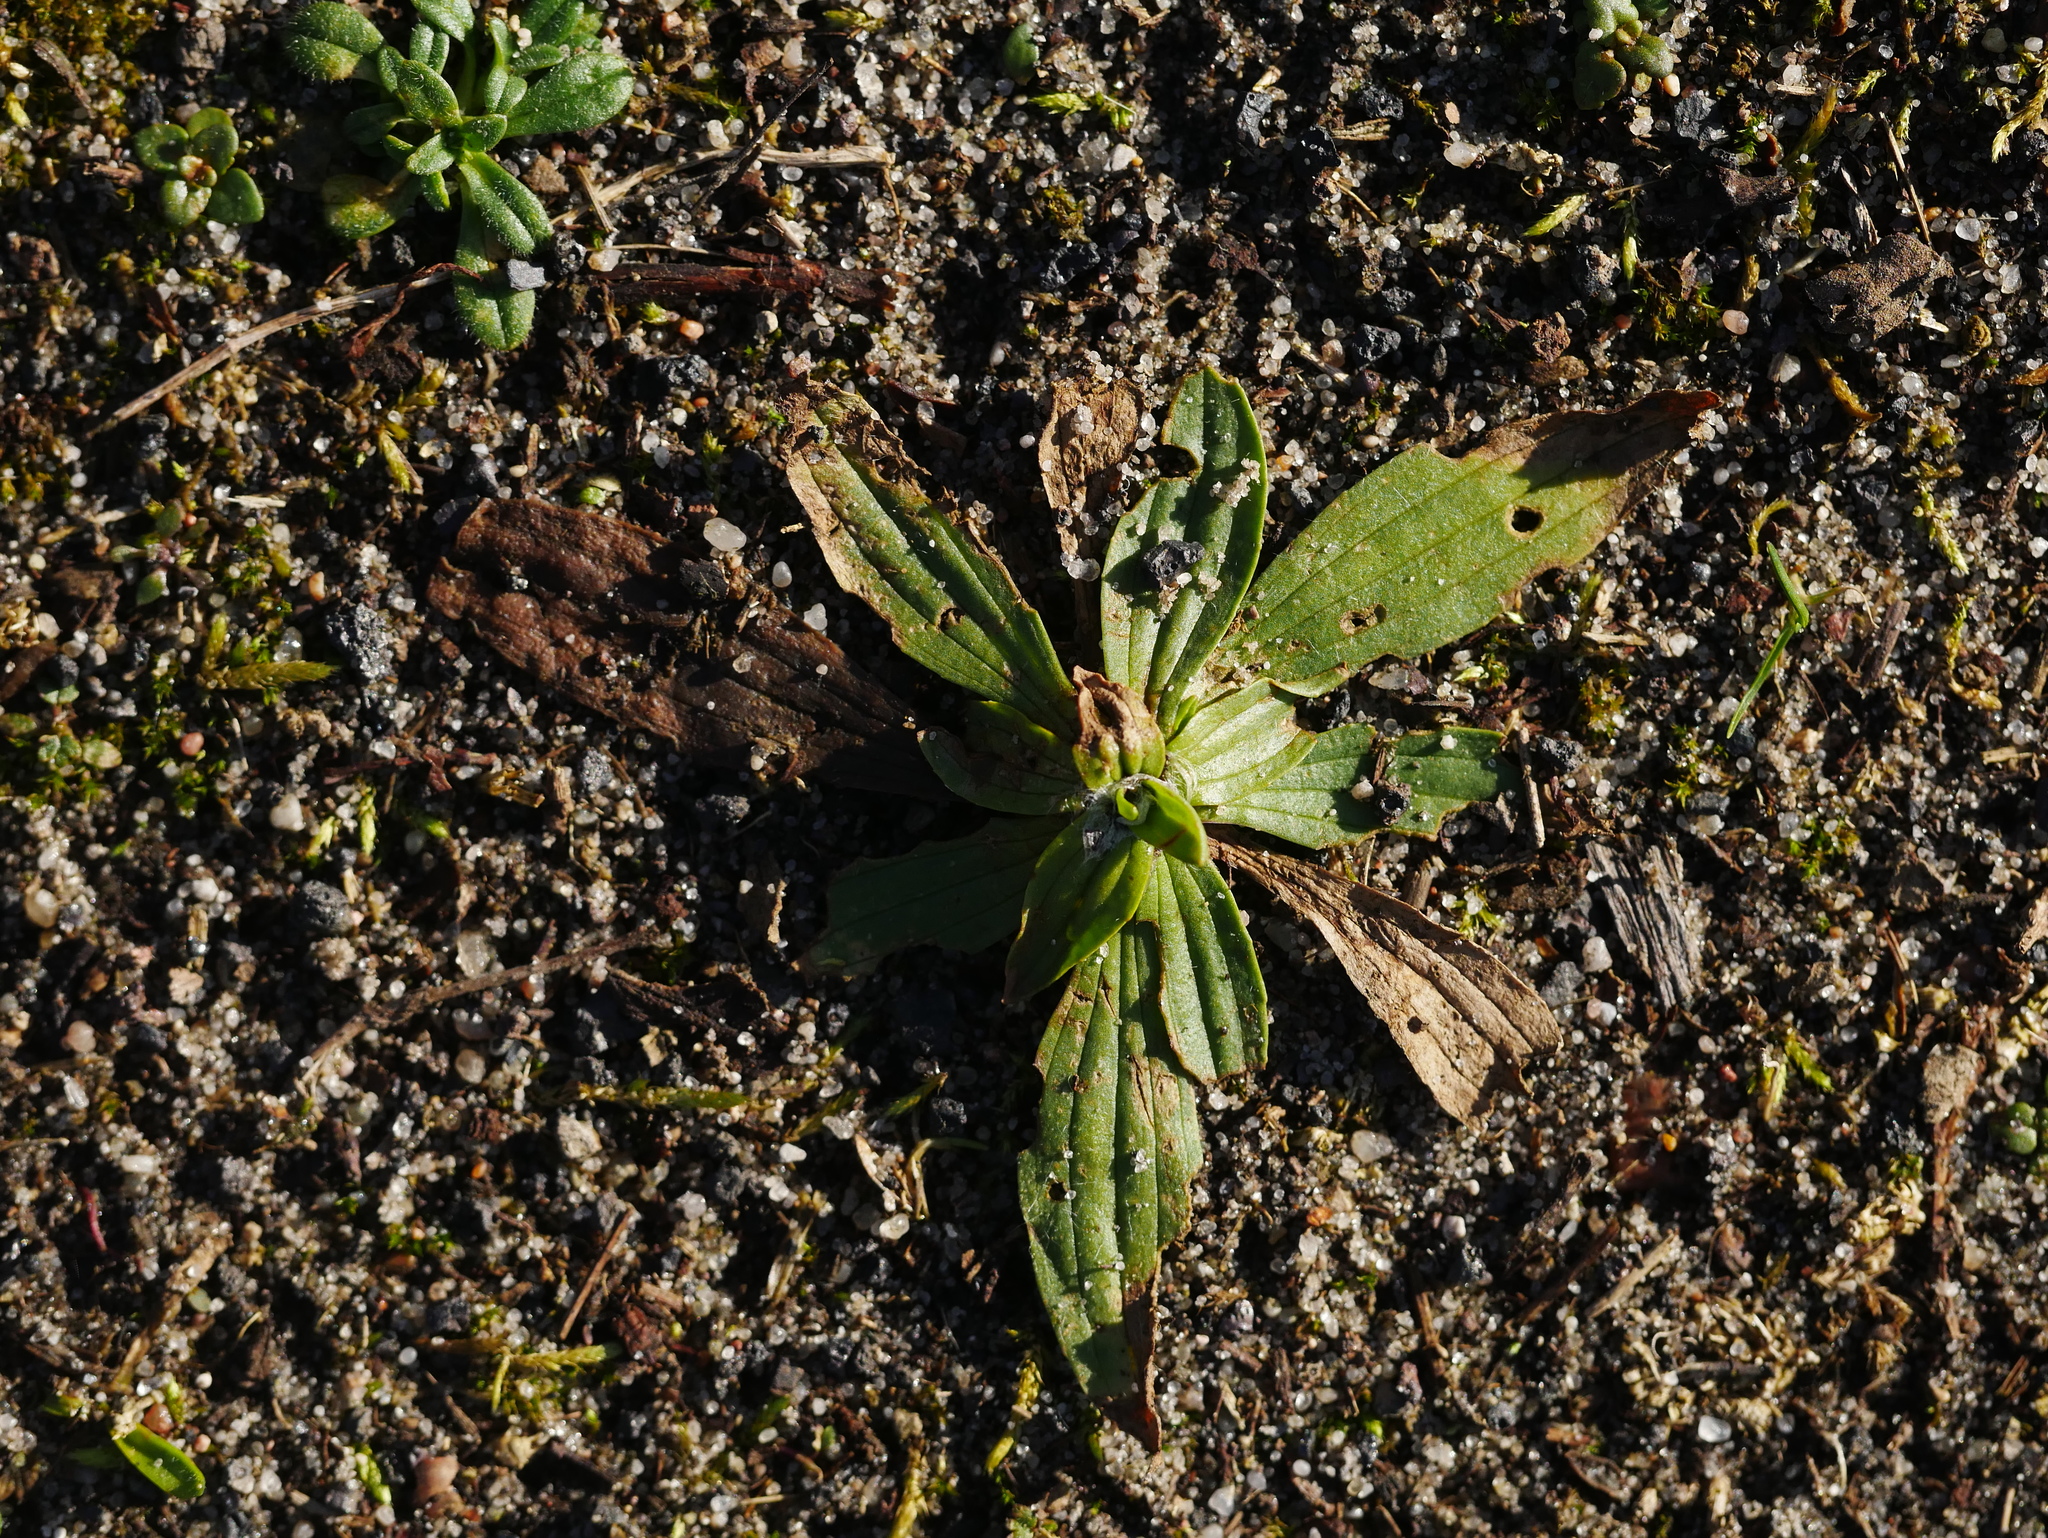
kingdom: Plantae
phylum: Tracheophyta
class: Magnoliopsida
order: Lamiales
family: Plantaginaceae
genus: Plantago
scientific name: Plantago lanceolata
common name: Ribwort plantain
